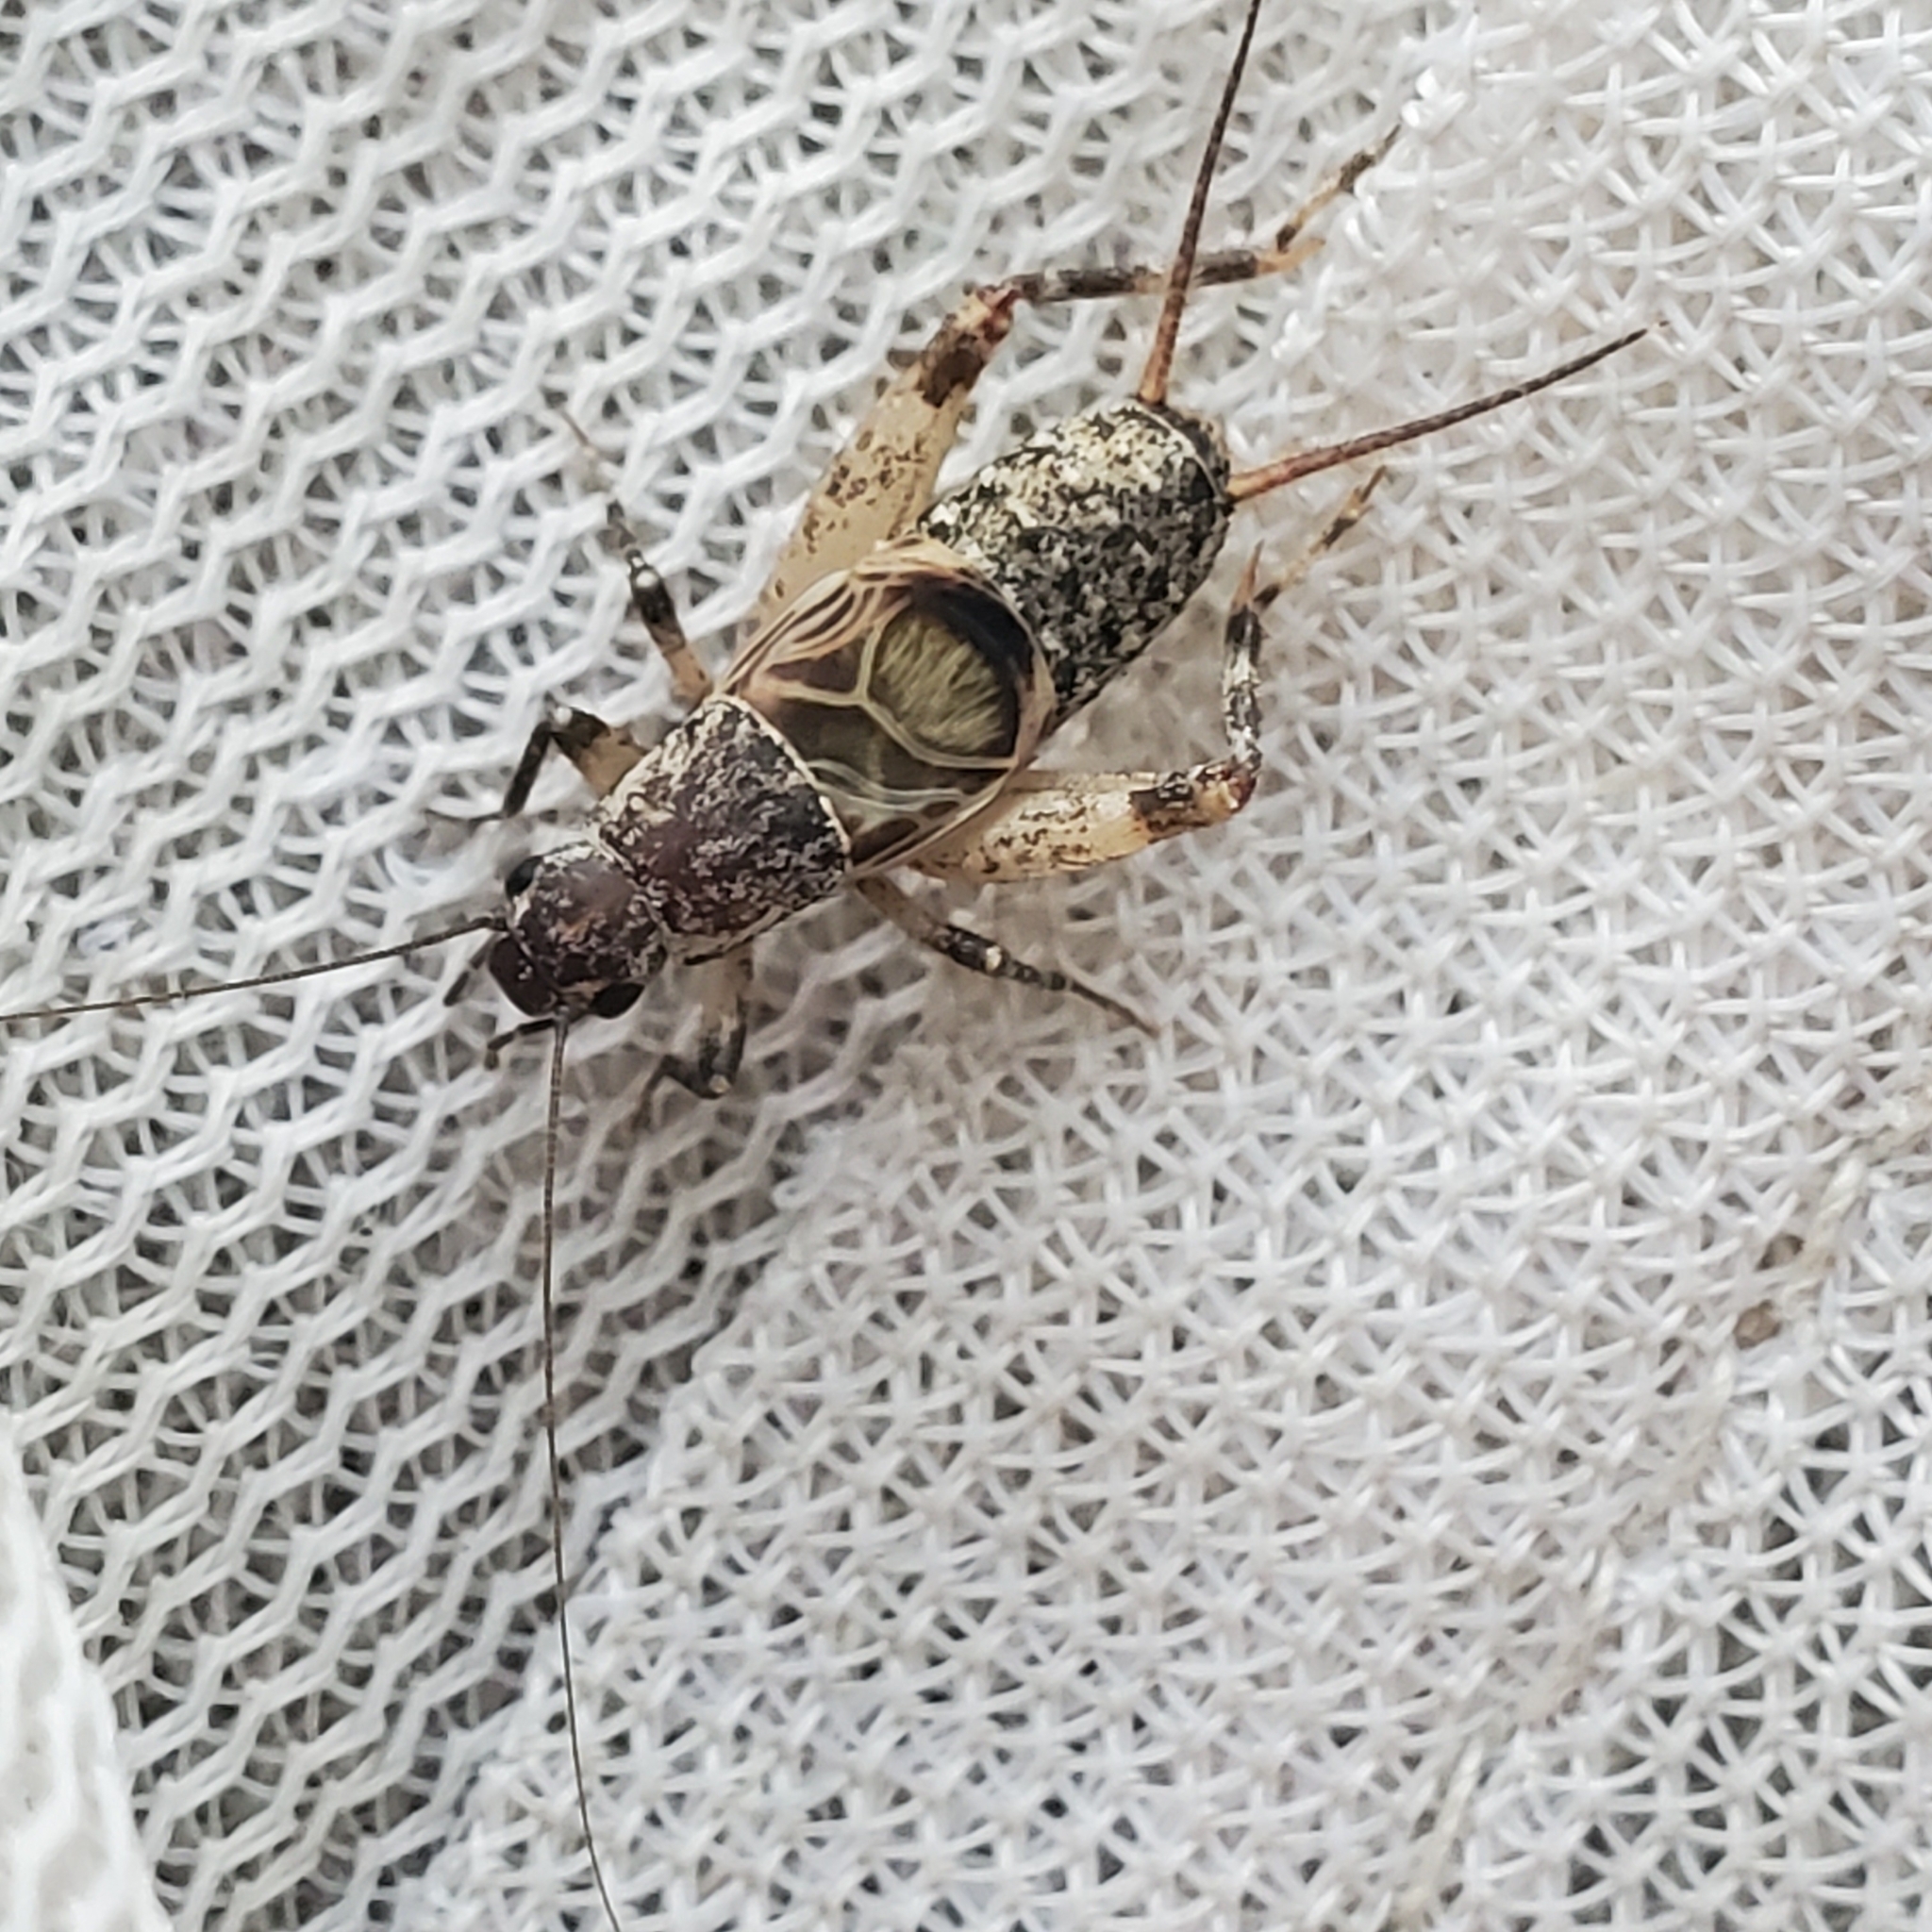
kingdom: Animalia
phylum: Arthropoda
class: Insecta
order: Orthoptera
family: Mogoplistidae
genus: Hoplosphyrum
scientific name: Hoplosphyrum boreale
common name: Long-winged scaly cricket
